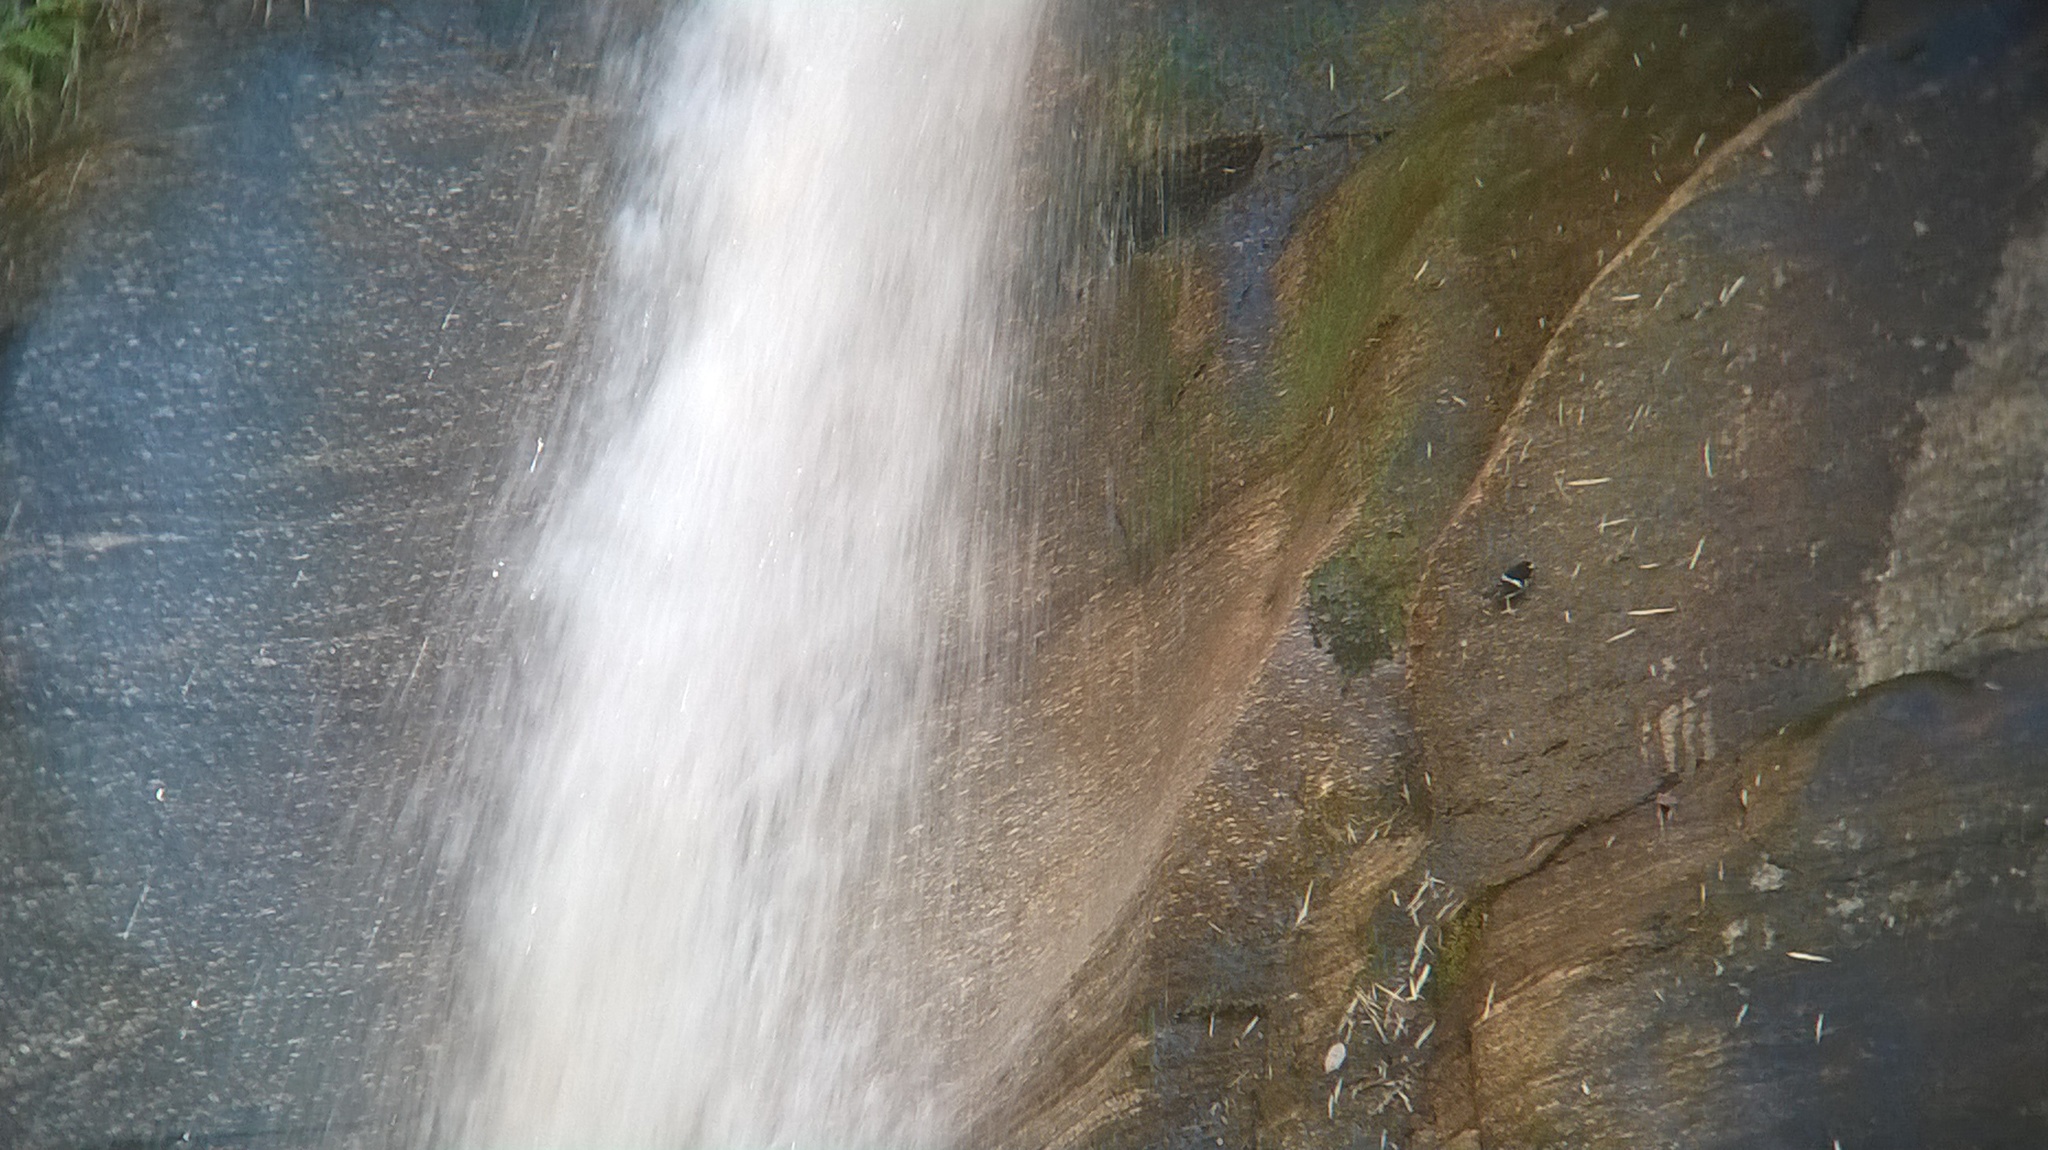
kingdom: Animalia
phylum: Chordata
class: Aves
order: Passeriformes
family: Muscicapidae
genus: Enicurus
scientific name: Enicurus scouleri
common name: Little forktail
